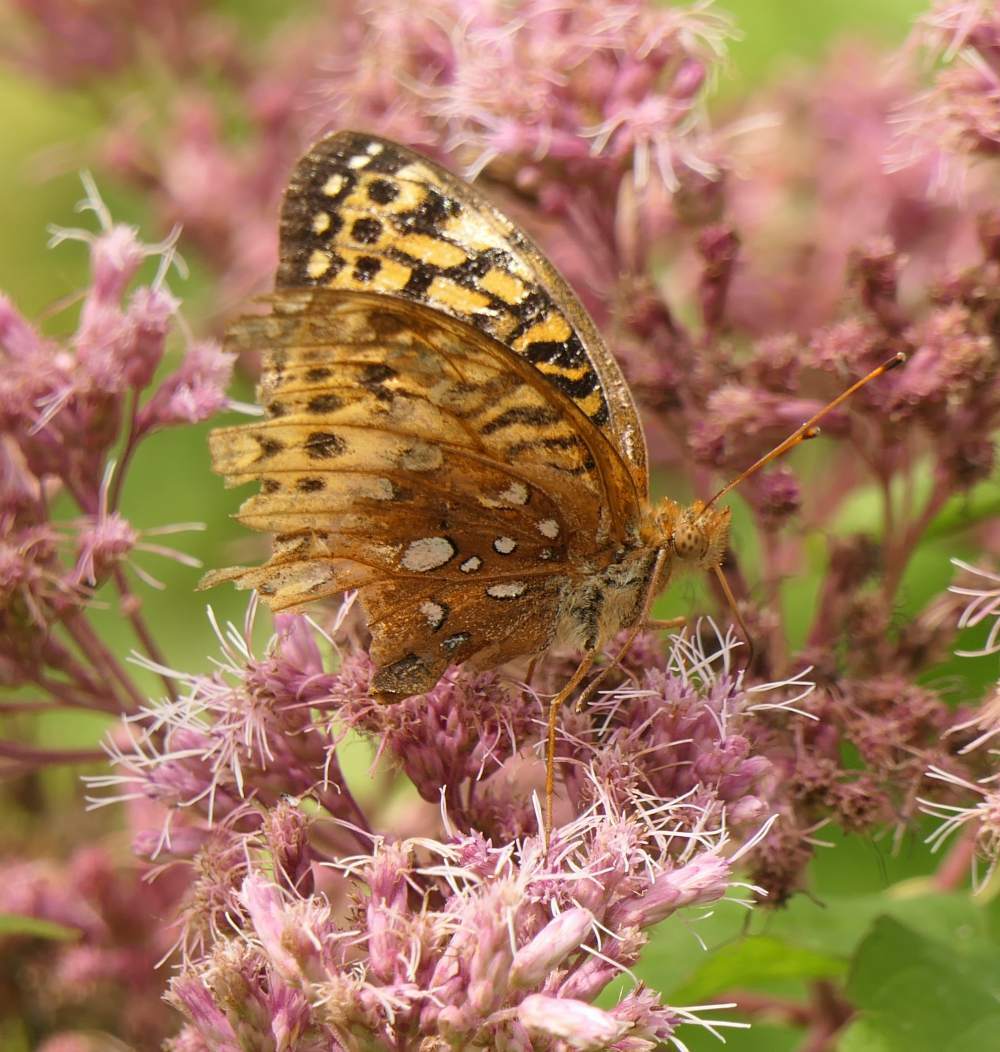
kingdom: Animalia
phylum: Arthropoda
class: Insecta
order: Lepidoptera
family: Nymphalidae
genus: Speyeria
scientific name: Speyeria cybele
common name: Great spangled fritillary
